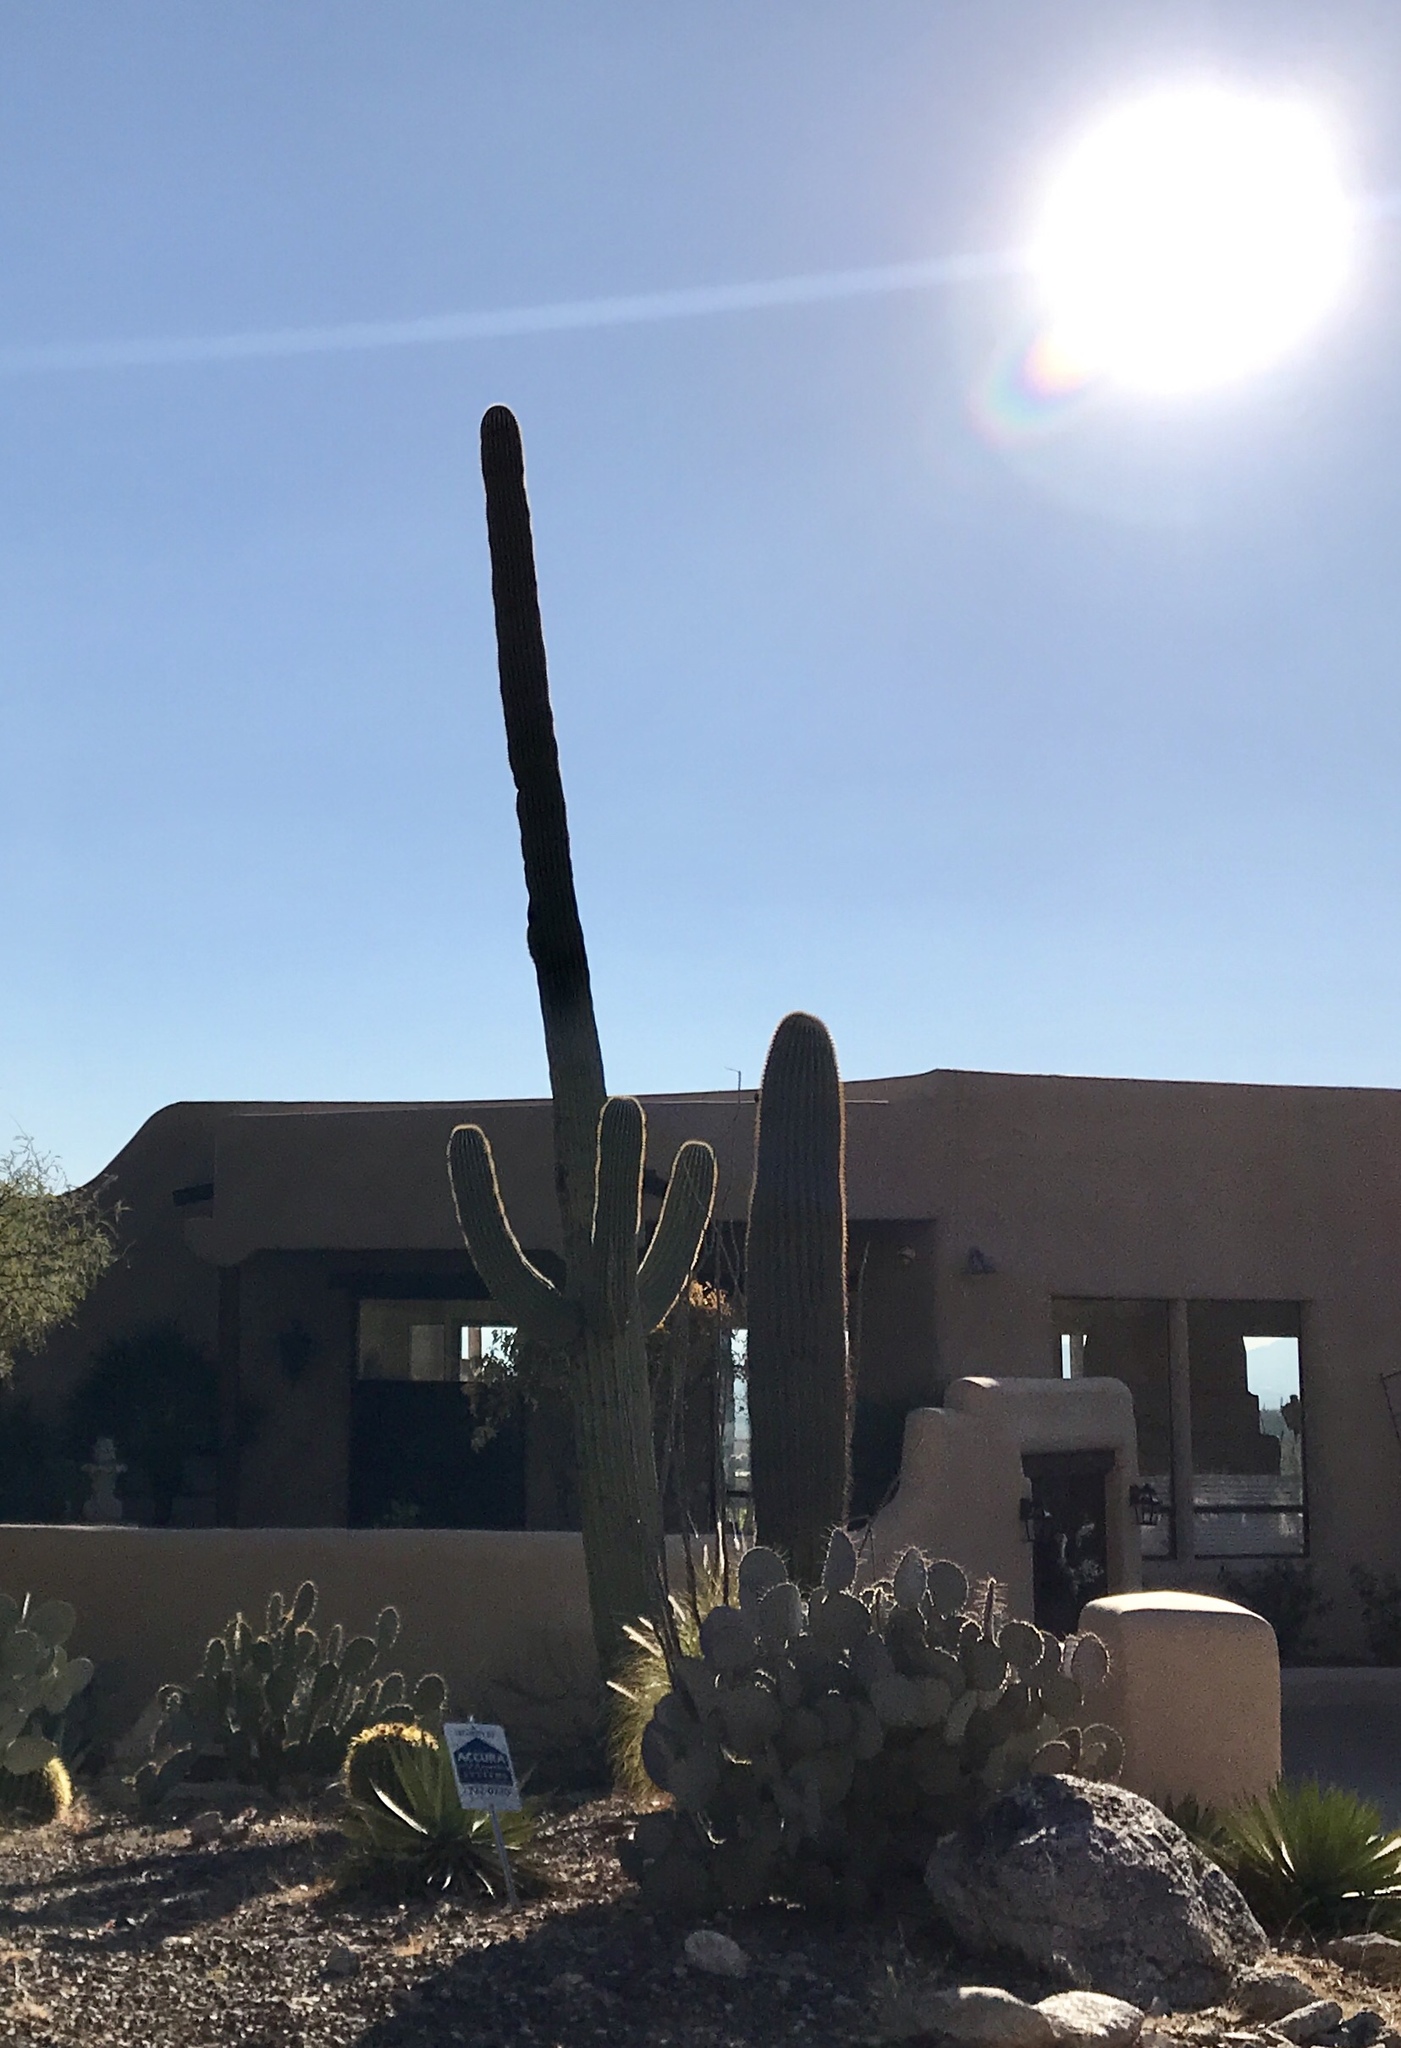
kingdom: Plantae
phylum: Tracheophyta
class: Magnoliopsida
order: Caryophyllales
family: Cactaceae
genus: Carnegiea
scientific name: Carnegiea gigantea
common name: Saguaro
